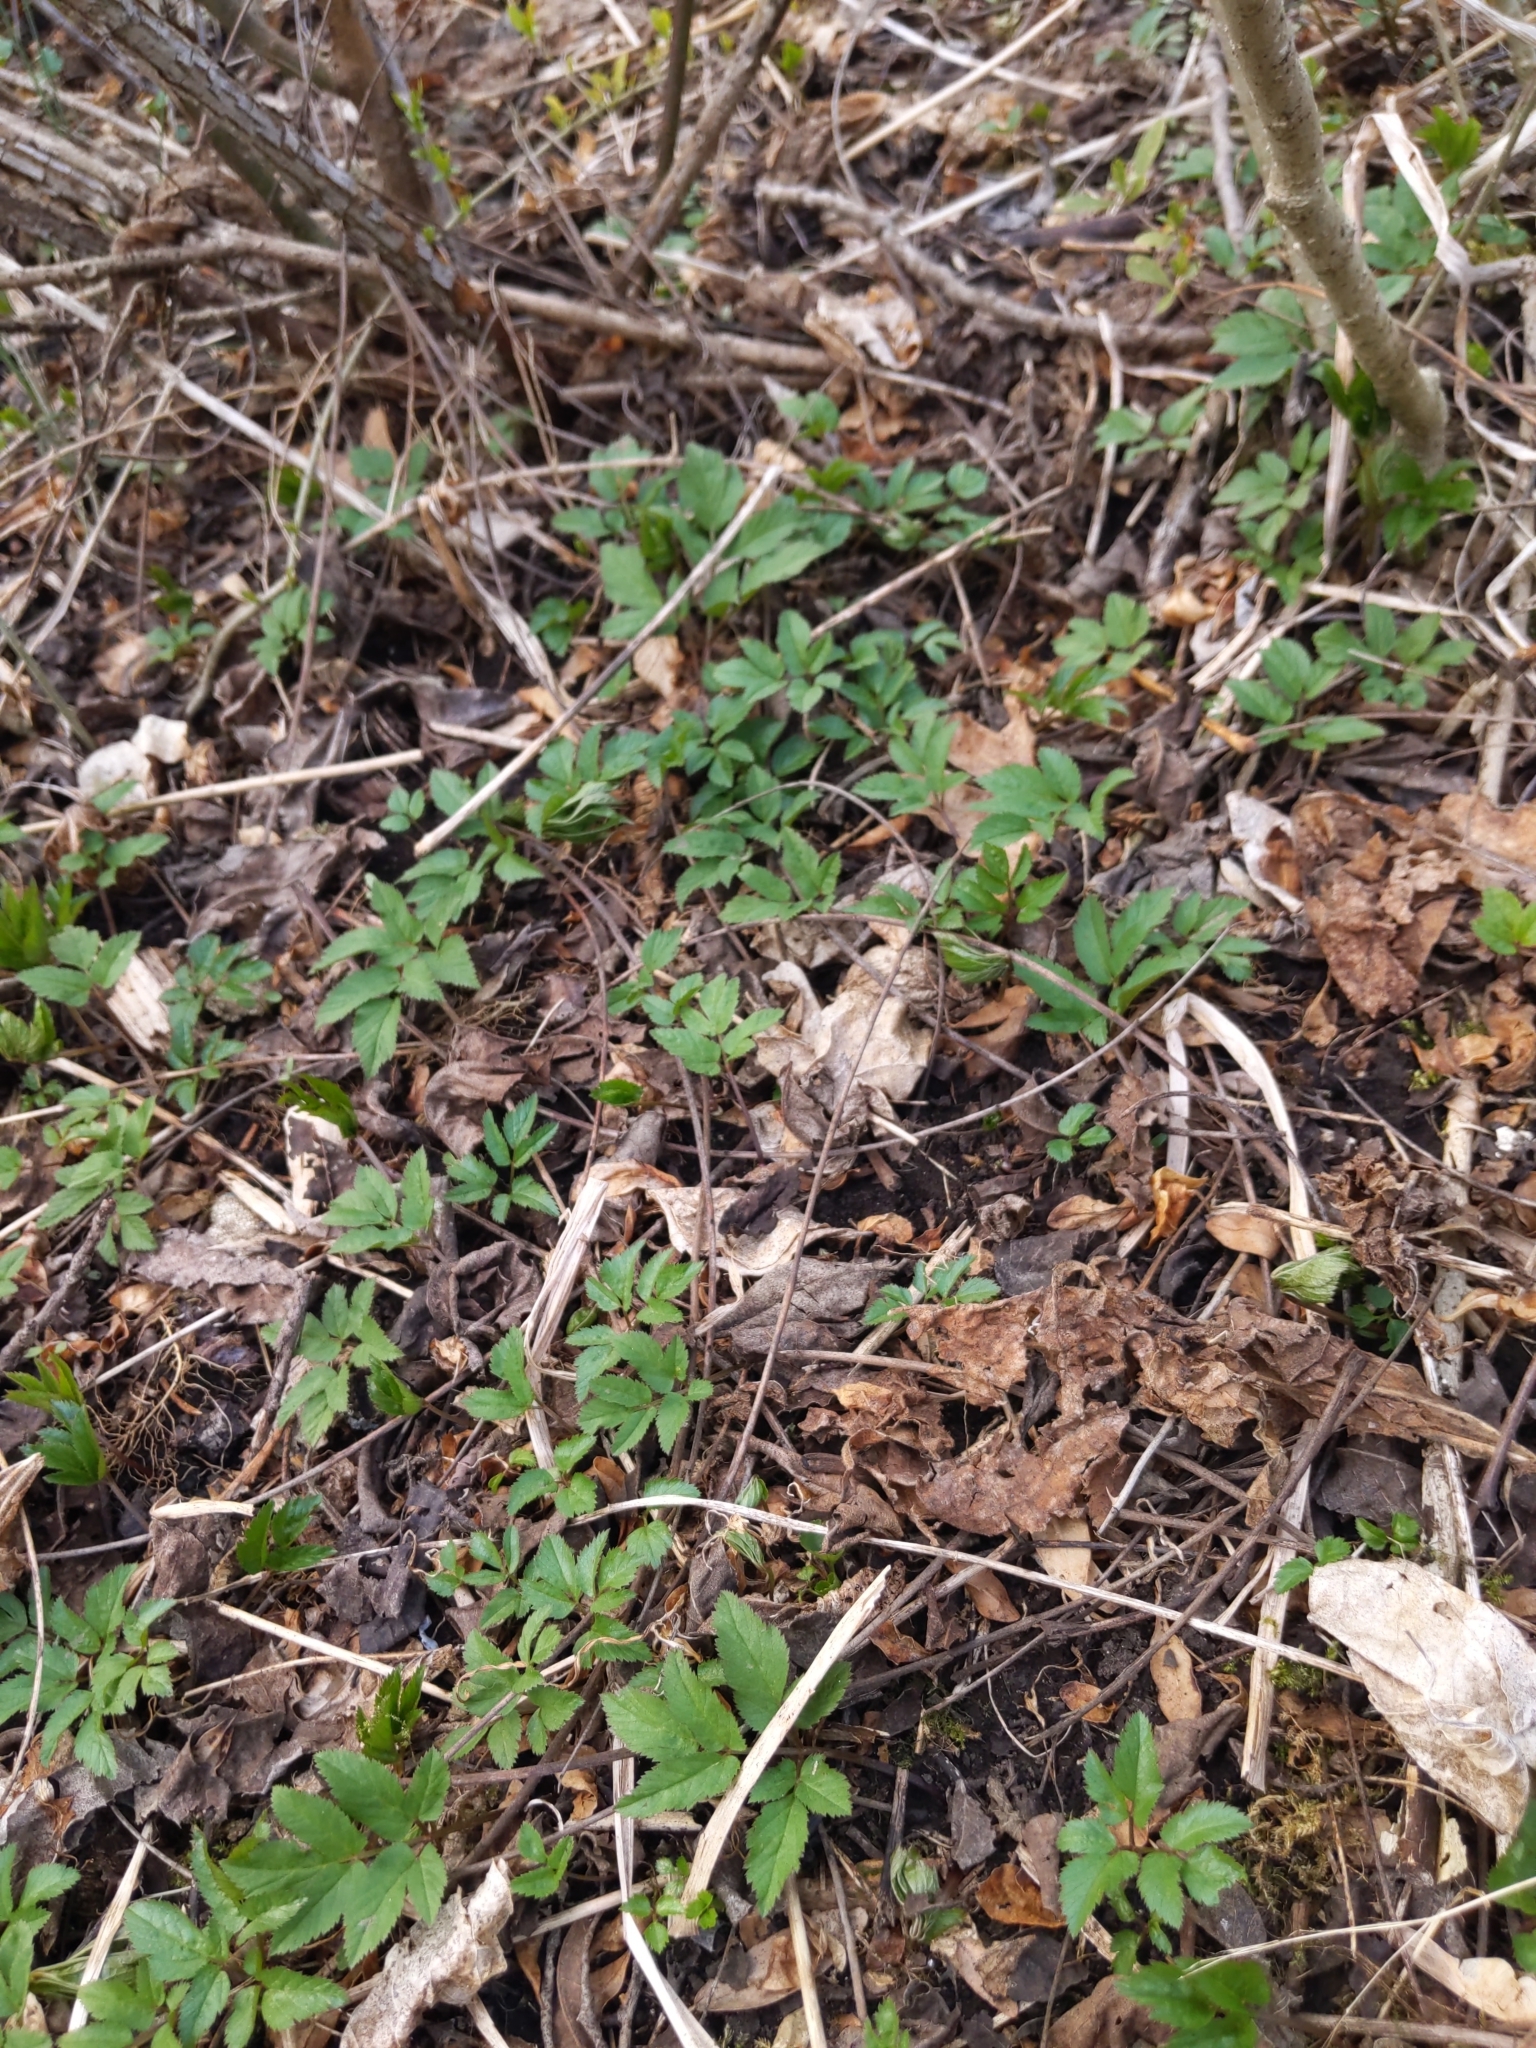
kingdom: Plantae
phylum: Tracheophyta
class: Magnoliopsida
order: Apiales
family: Apiaceae
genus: Aegopodium
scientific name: Aegopodium podagraria
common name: Ground-elder
